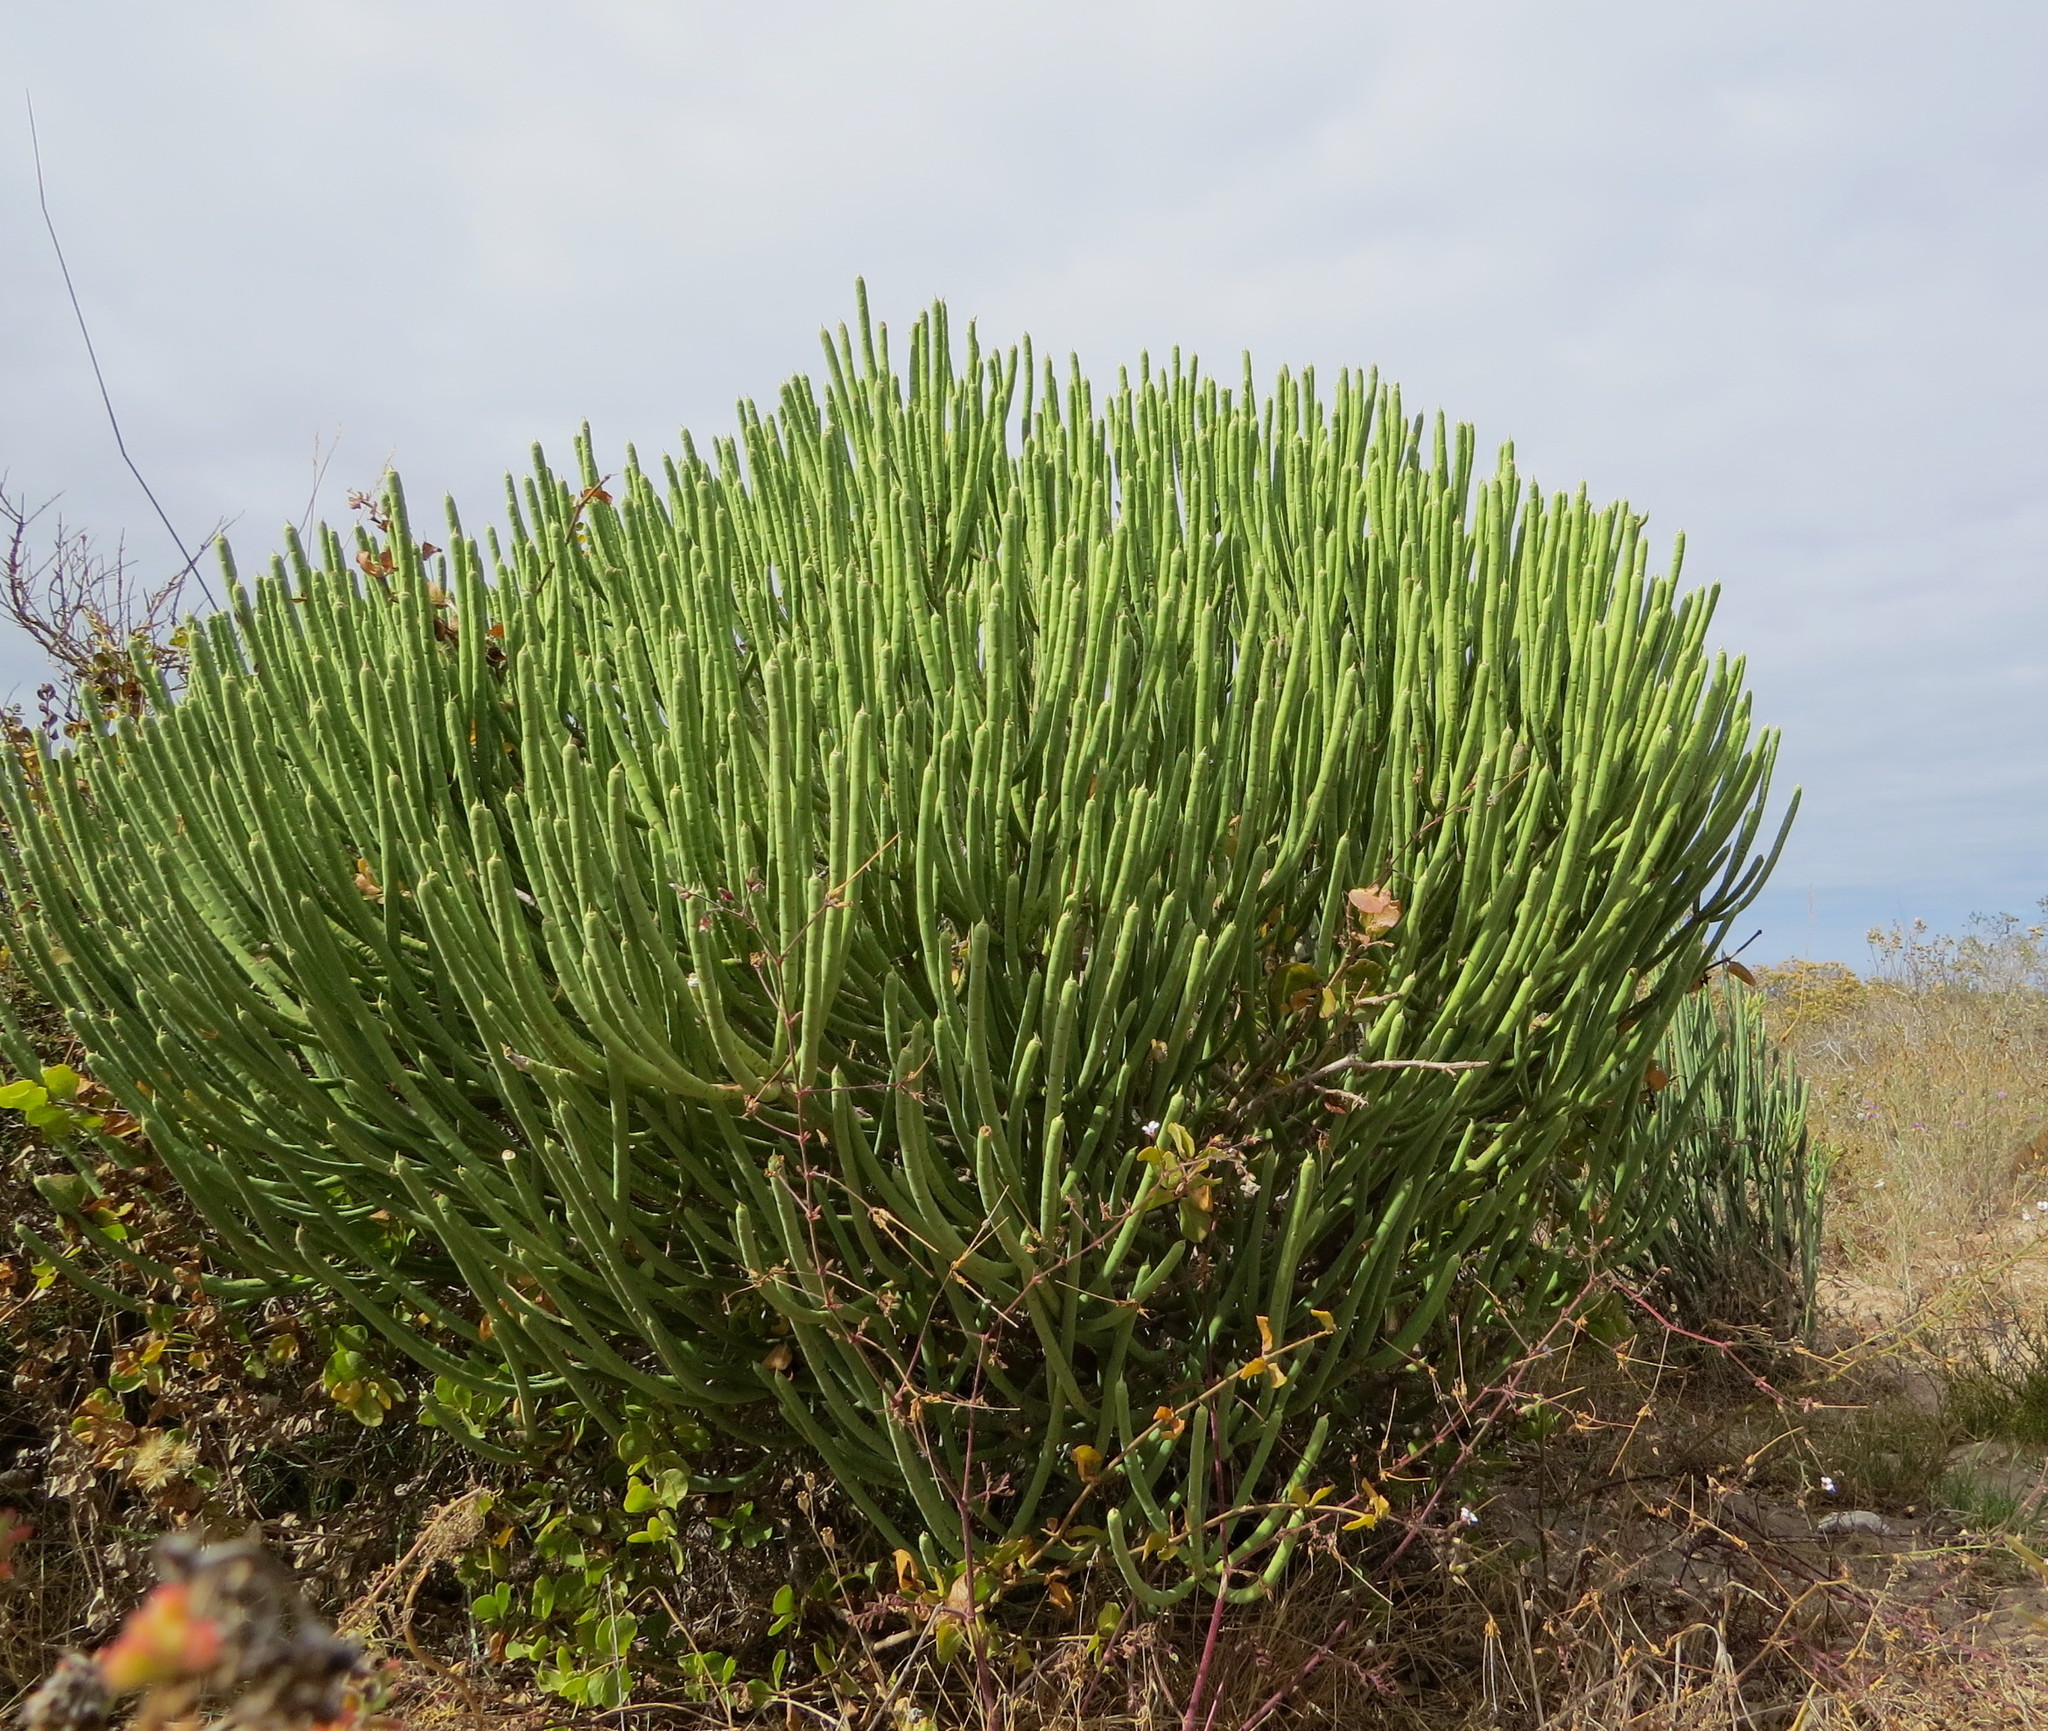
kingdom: Plantae
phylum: Tracheophyta
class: Magnoliopsida
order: Malpighiales
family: Euphorbiaceae
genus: Euphorbia
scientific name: Euphorbia mauritanica
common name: Jackal's-food
